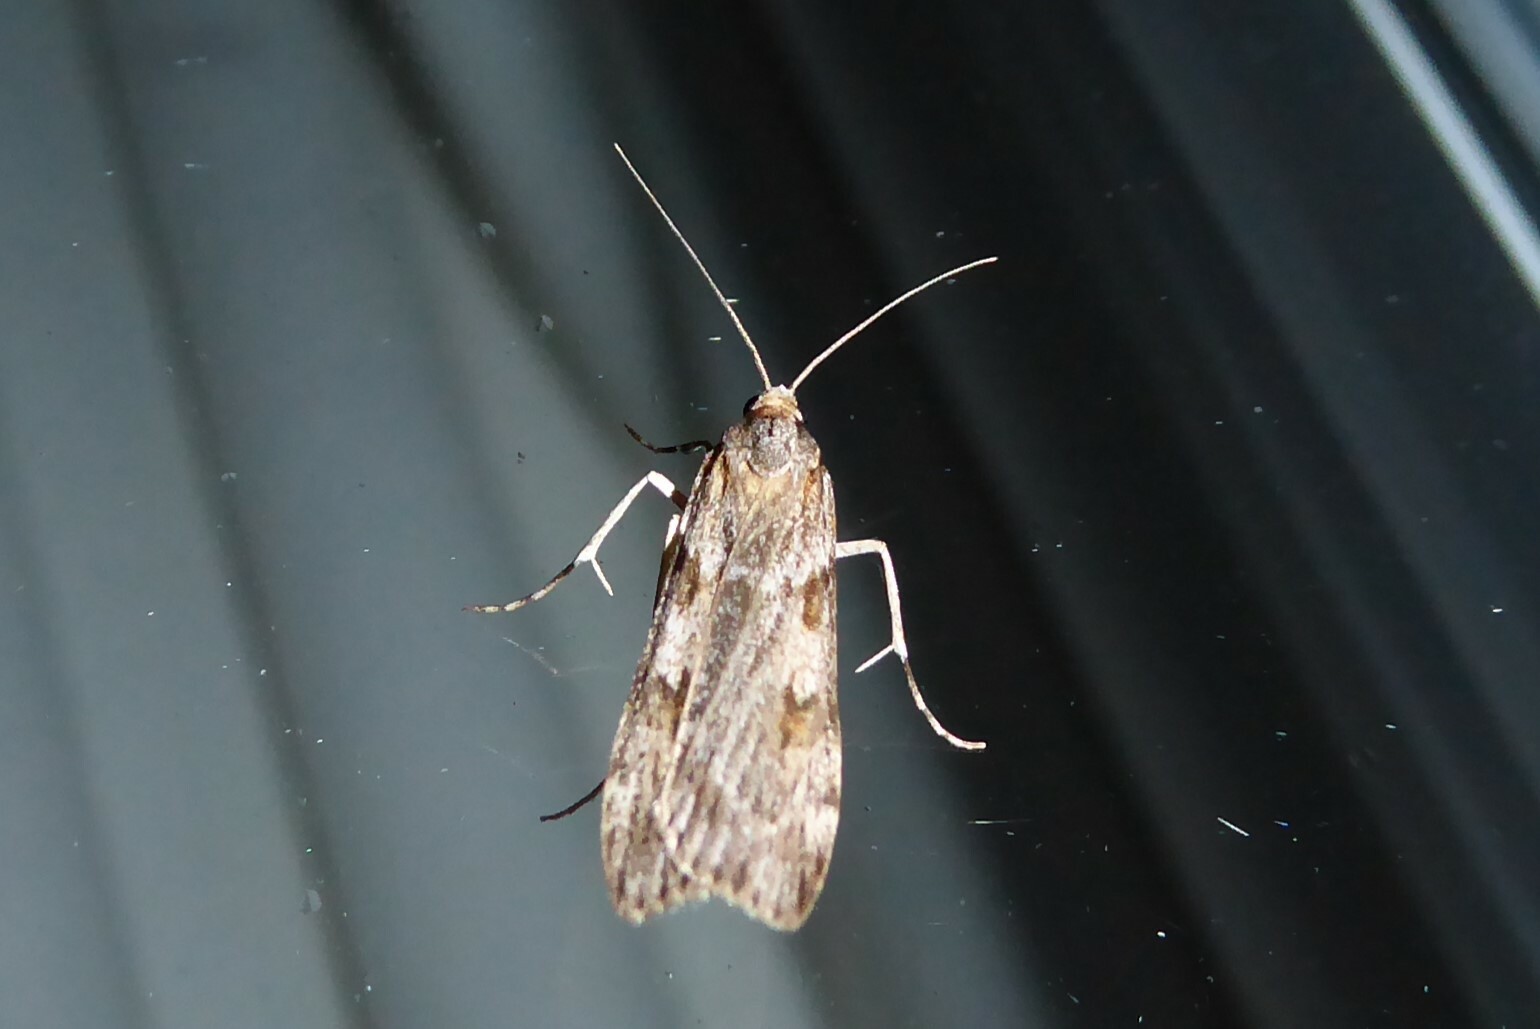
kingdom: Animalia
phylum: Arthropoda
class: Insecta
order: Lepidoptera
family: Crambidae
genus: Scoparia
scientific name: Scoparia halopis
